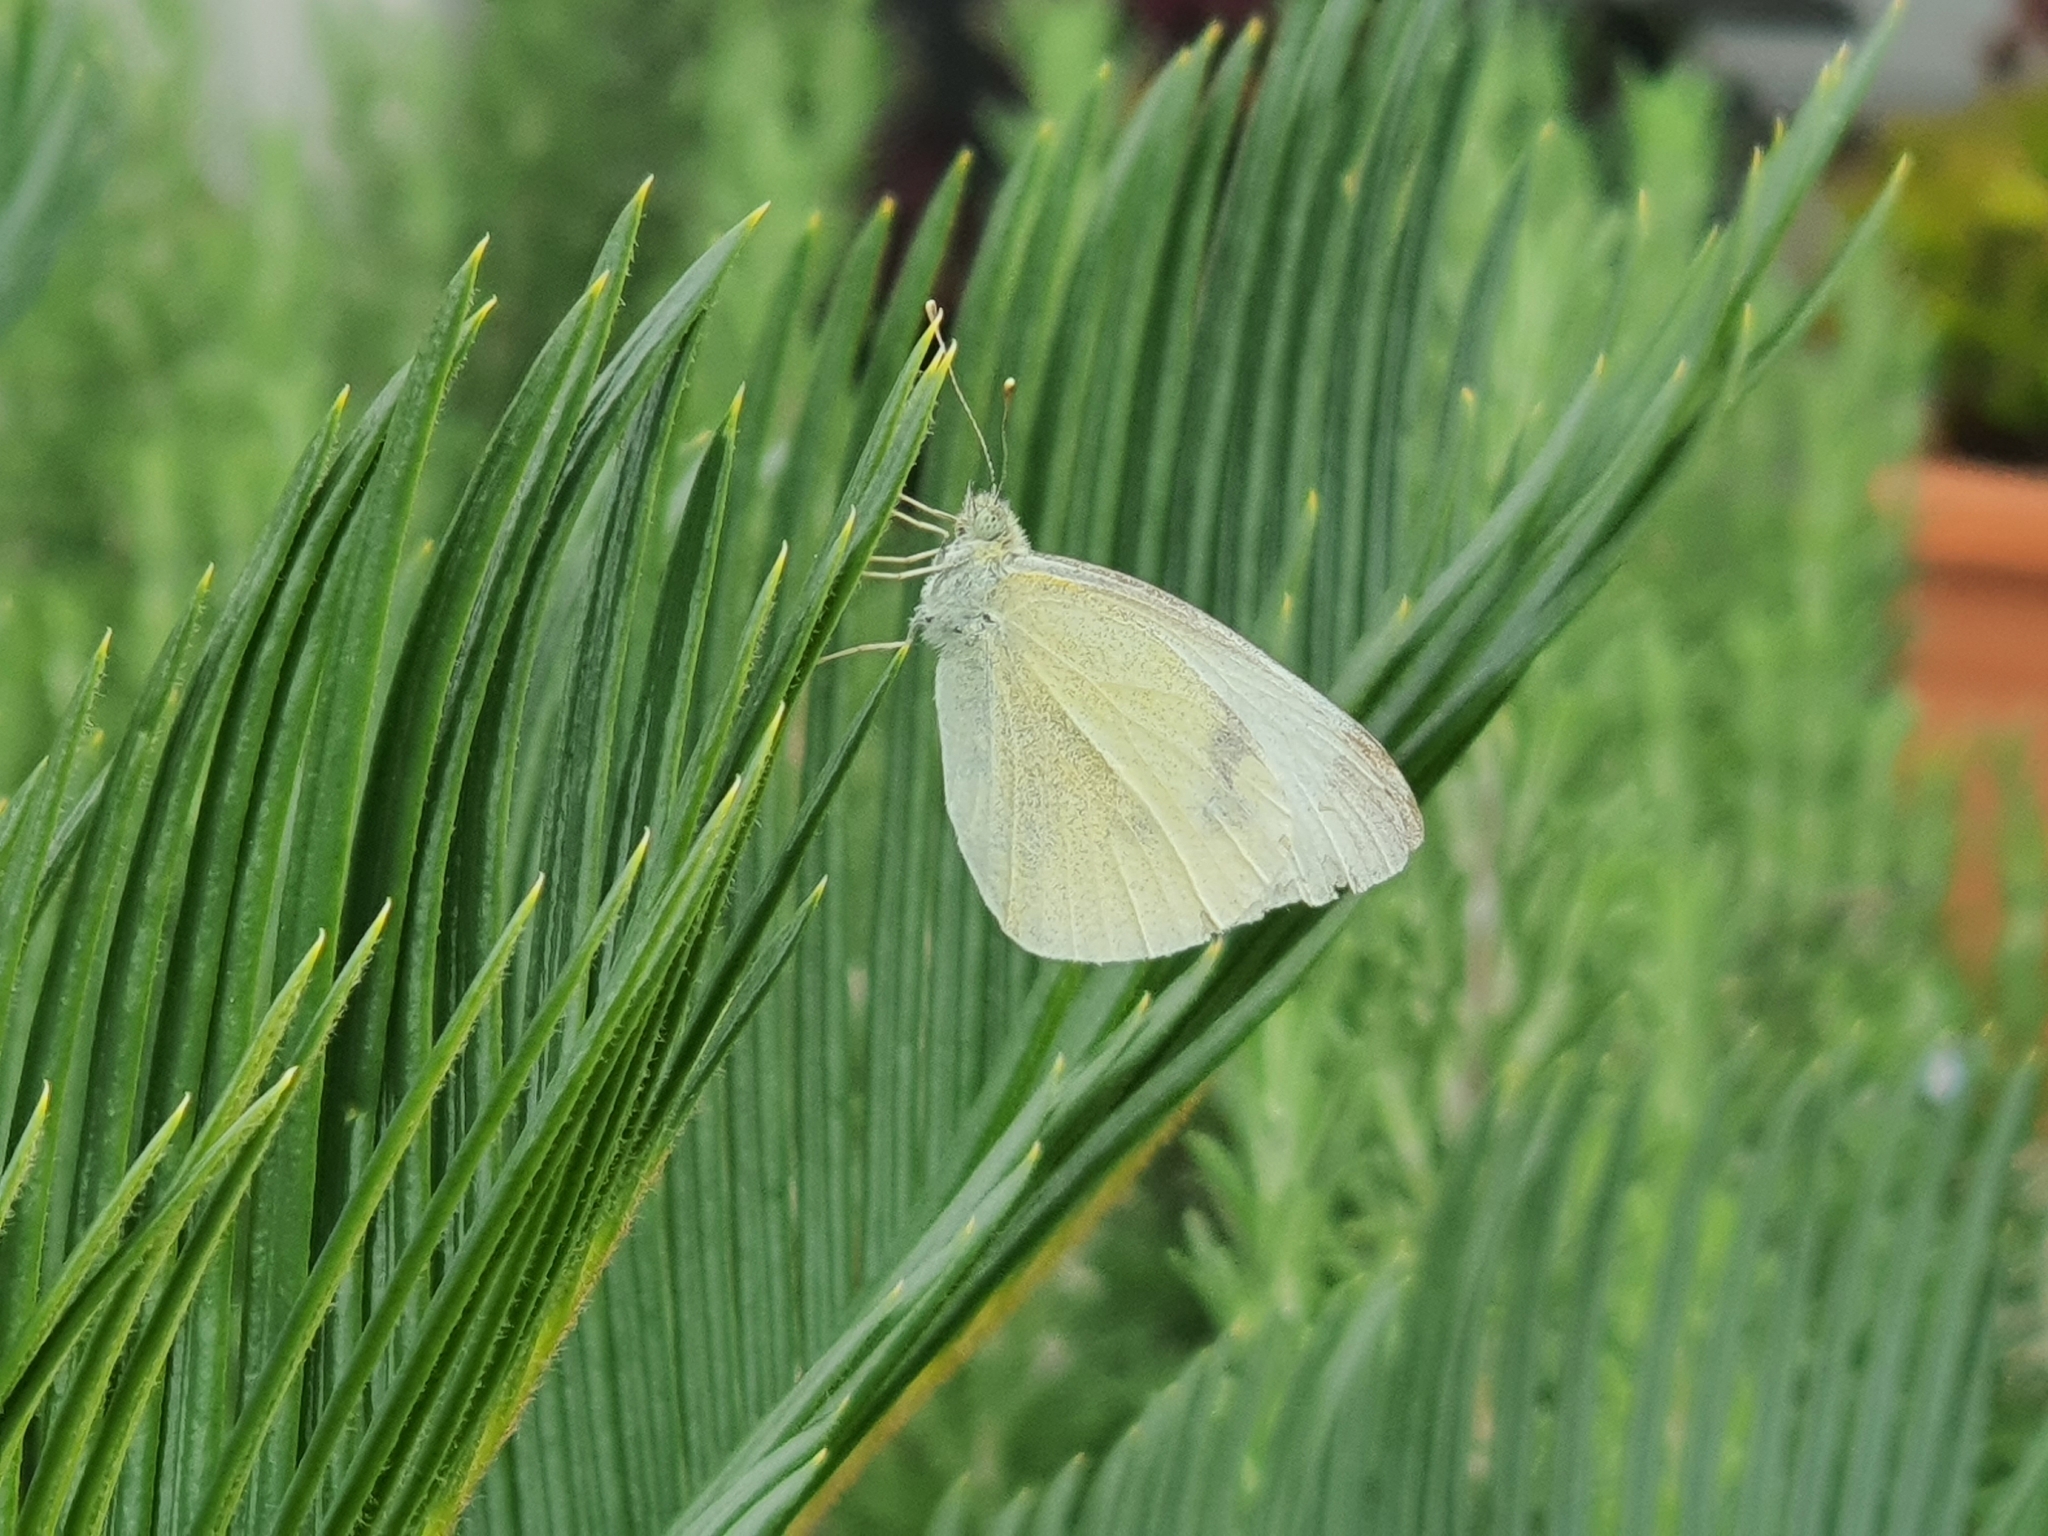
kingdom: Animalia
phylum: Arthropoda
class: Insecta
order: Lepidoptera
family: Pieridae
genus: Pieris
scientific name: Pieris rapae
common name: Small white
